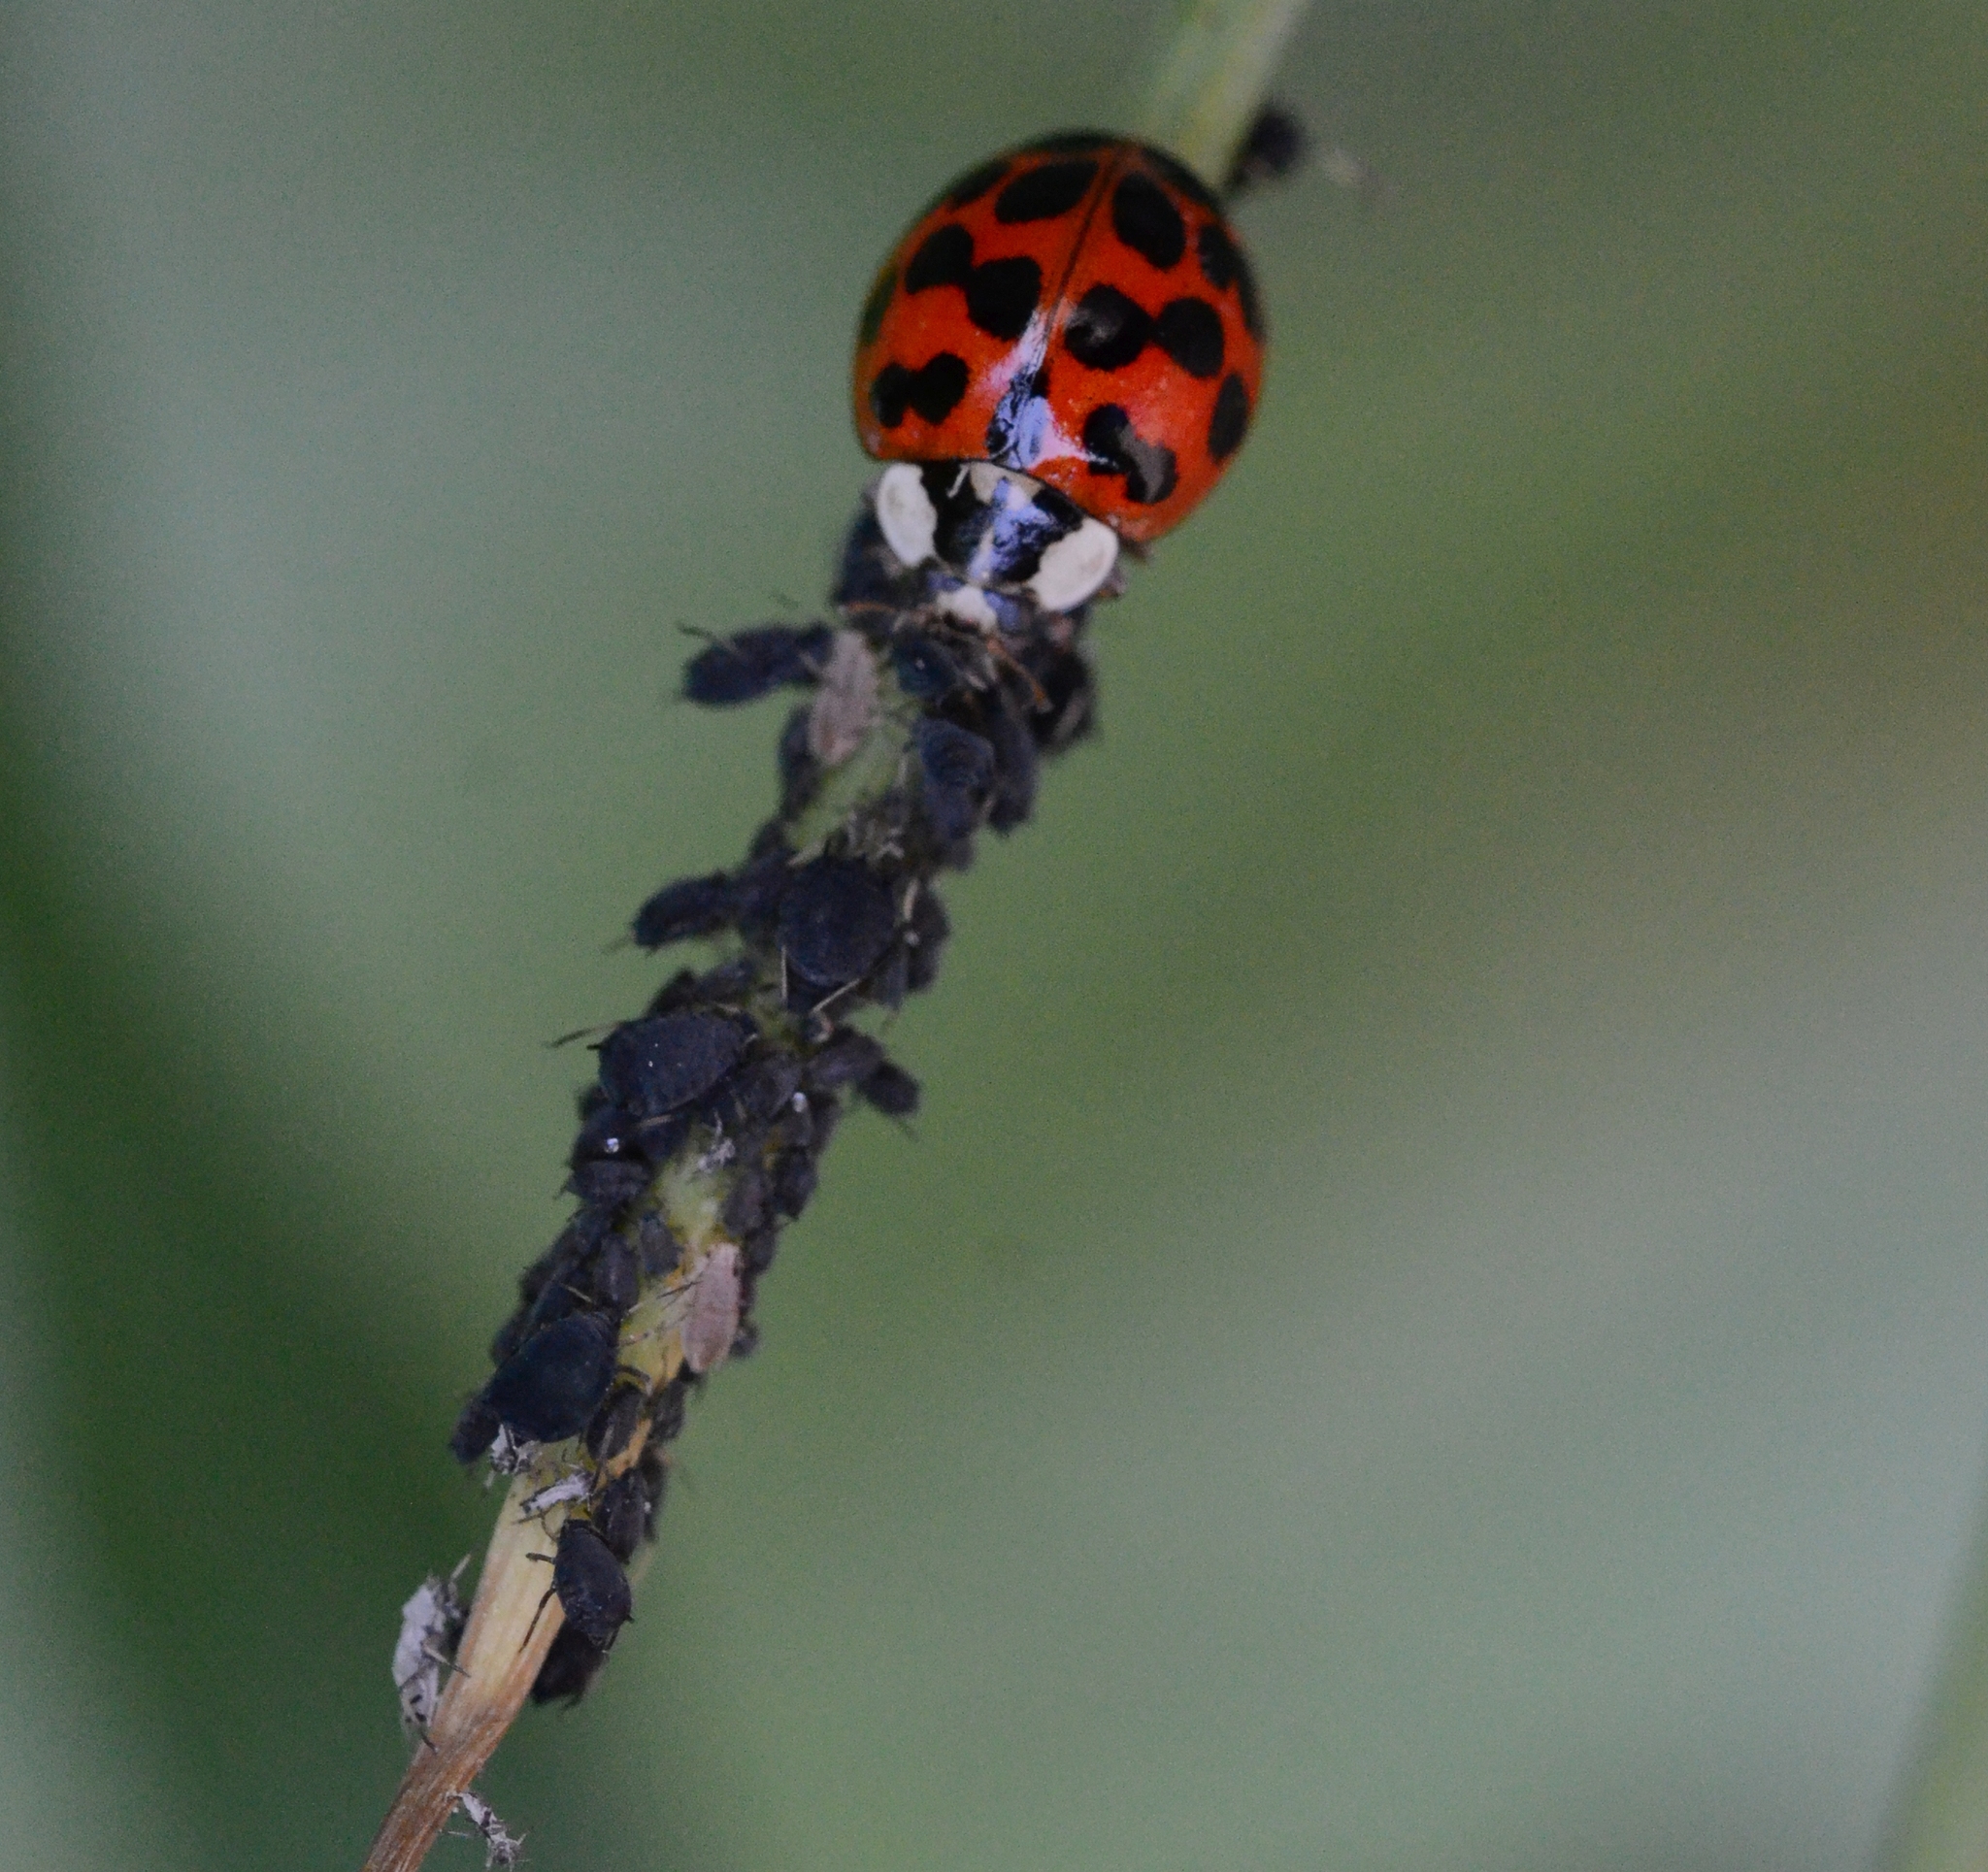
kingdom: Animalia
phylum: Arthropoda
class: Insecta
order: Coleoptera
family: Coccinellidae
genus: Harmonia
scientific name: Harmonia axyridis
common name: Harlequin ladybird
